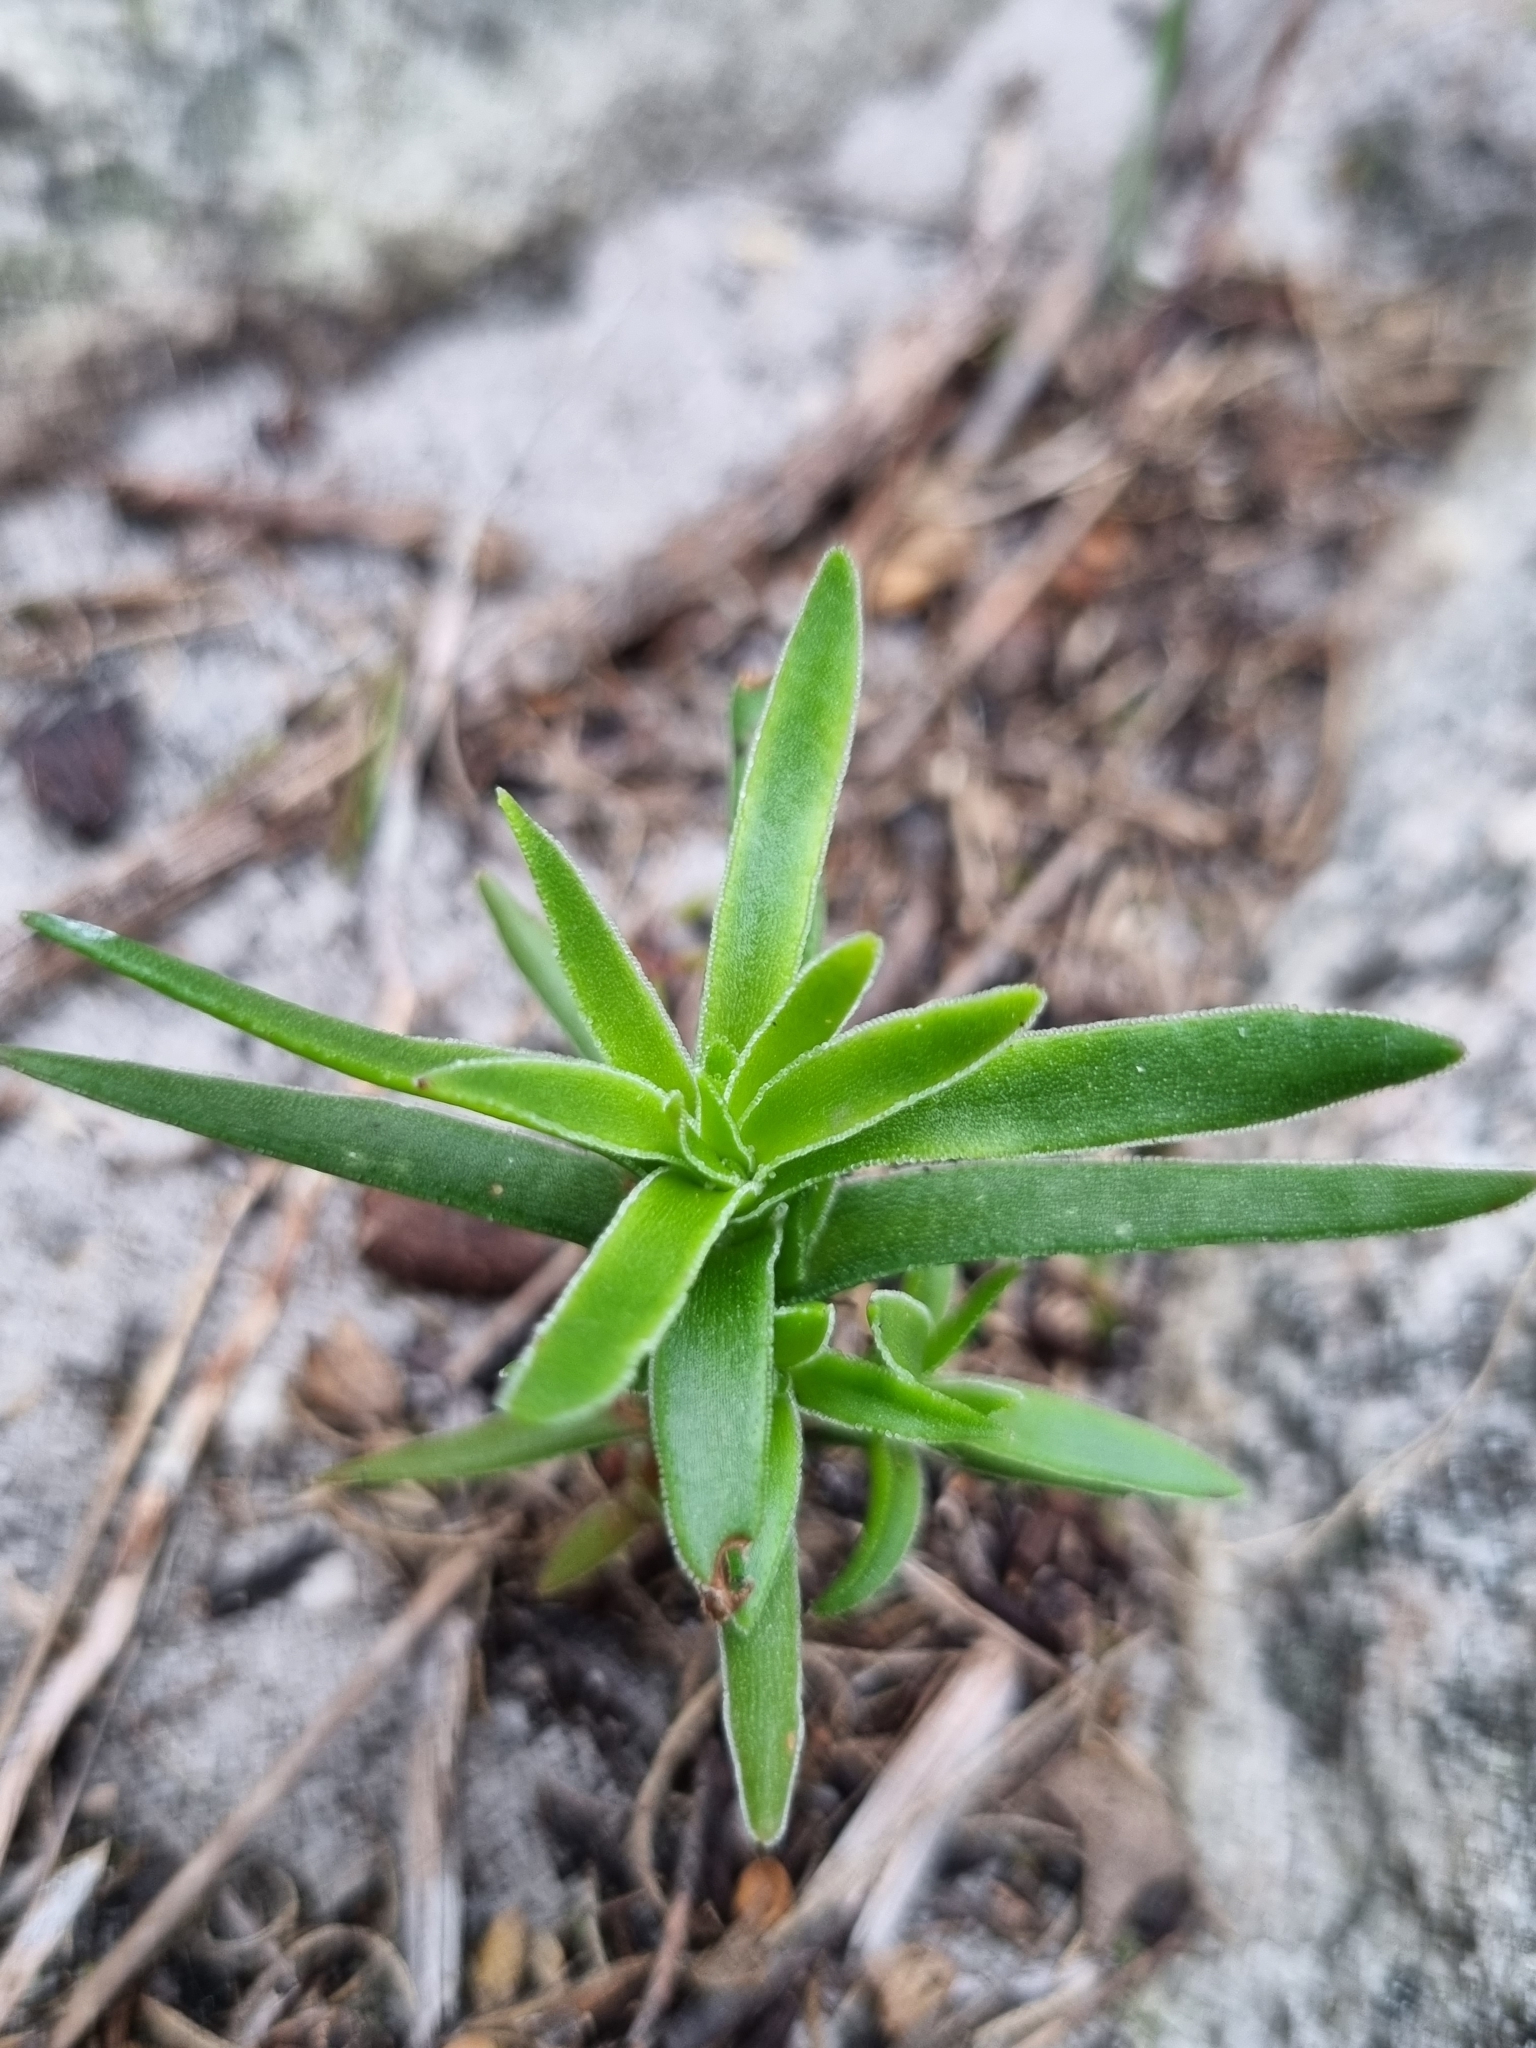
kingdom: Plantae
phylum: Tracheophyta
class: Magnoliopsida
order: Saxifragales
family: Crassulaceae
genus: Crassula
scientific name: Crassula fascicularis
